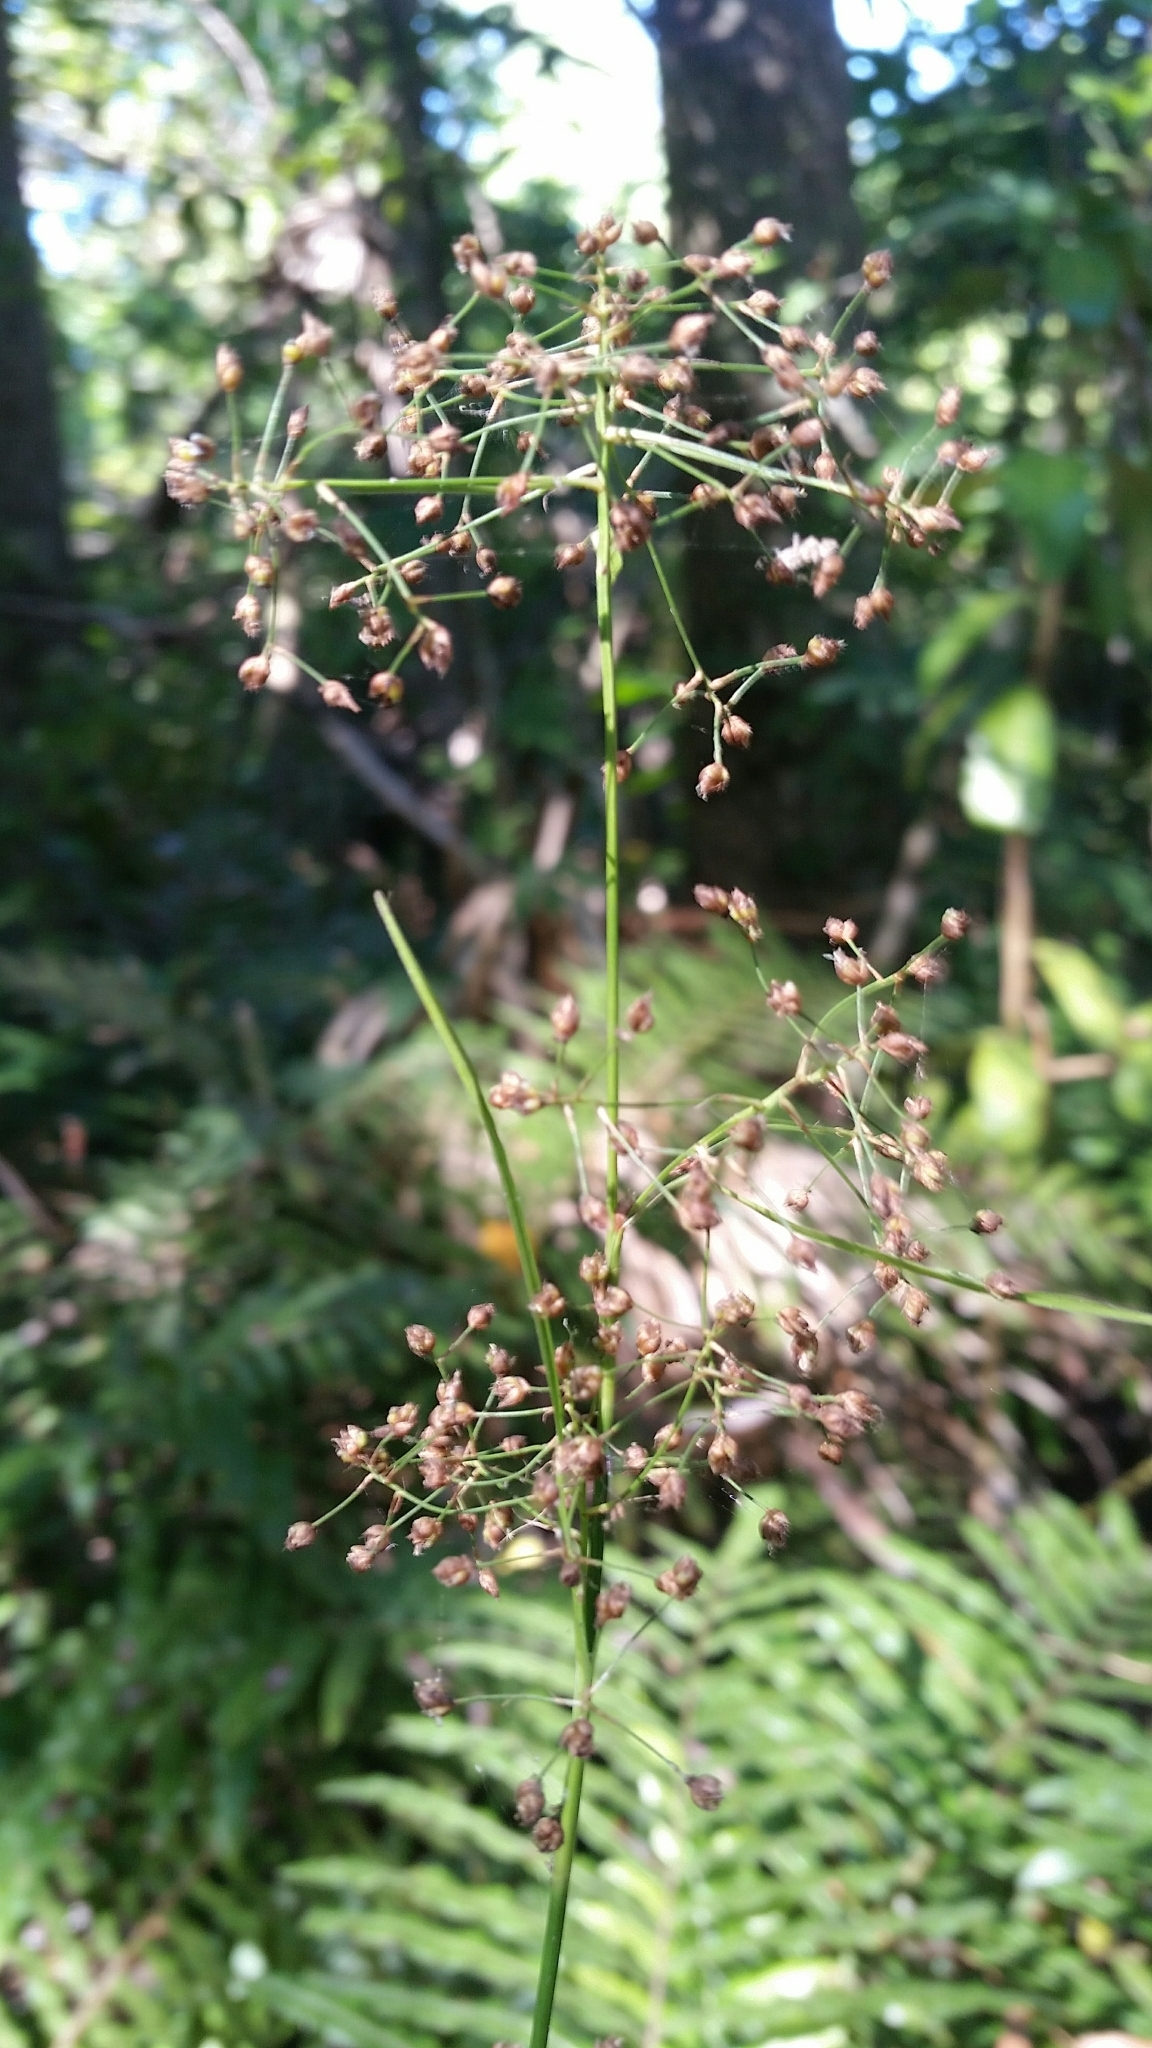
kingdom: Plantae
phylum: Tracheophyta
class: Liliopsida
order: Poales
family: Cyperaceae
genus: Rhynchospora
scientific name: Rhynchospora miliacea
